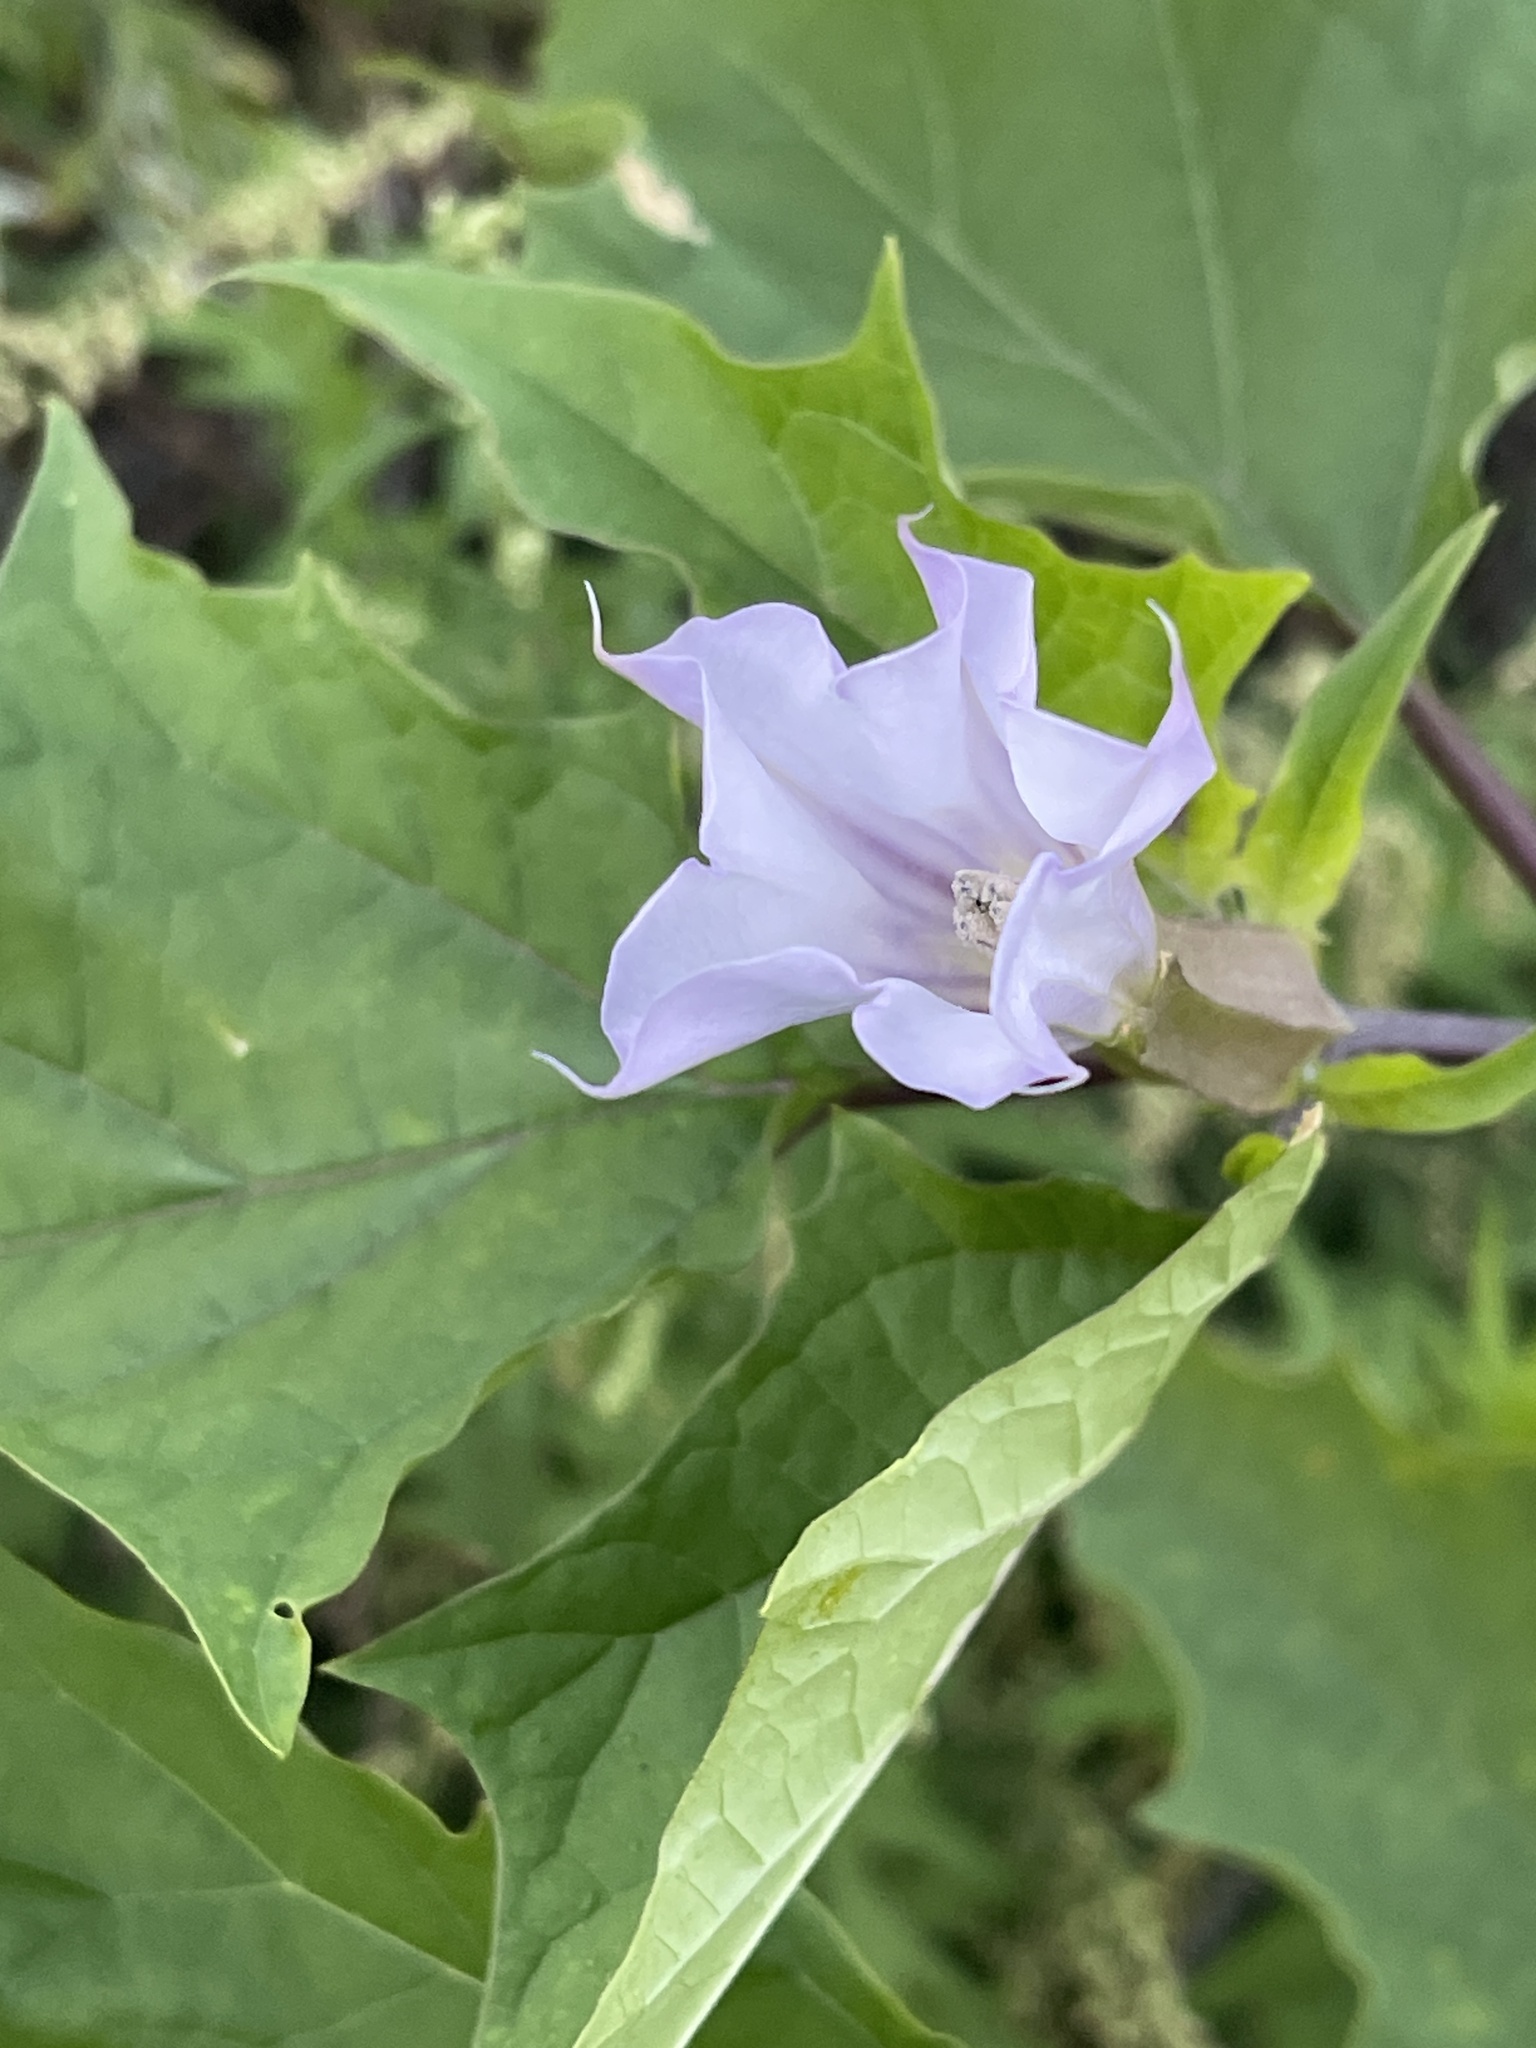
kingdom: Plantae
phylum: Tracheophyta
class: Magnoliopsida
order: Solanales
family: Solanaceae
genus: Datura
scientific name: Datura stramonium
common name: Thorn-apple
